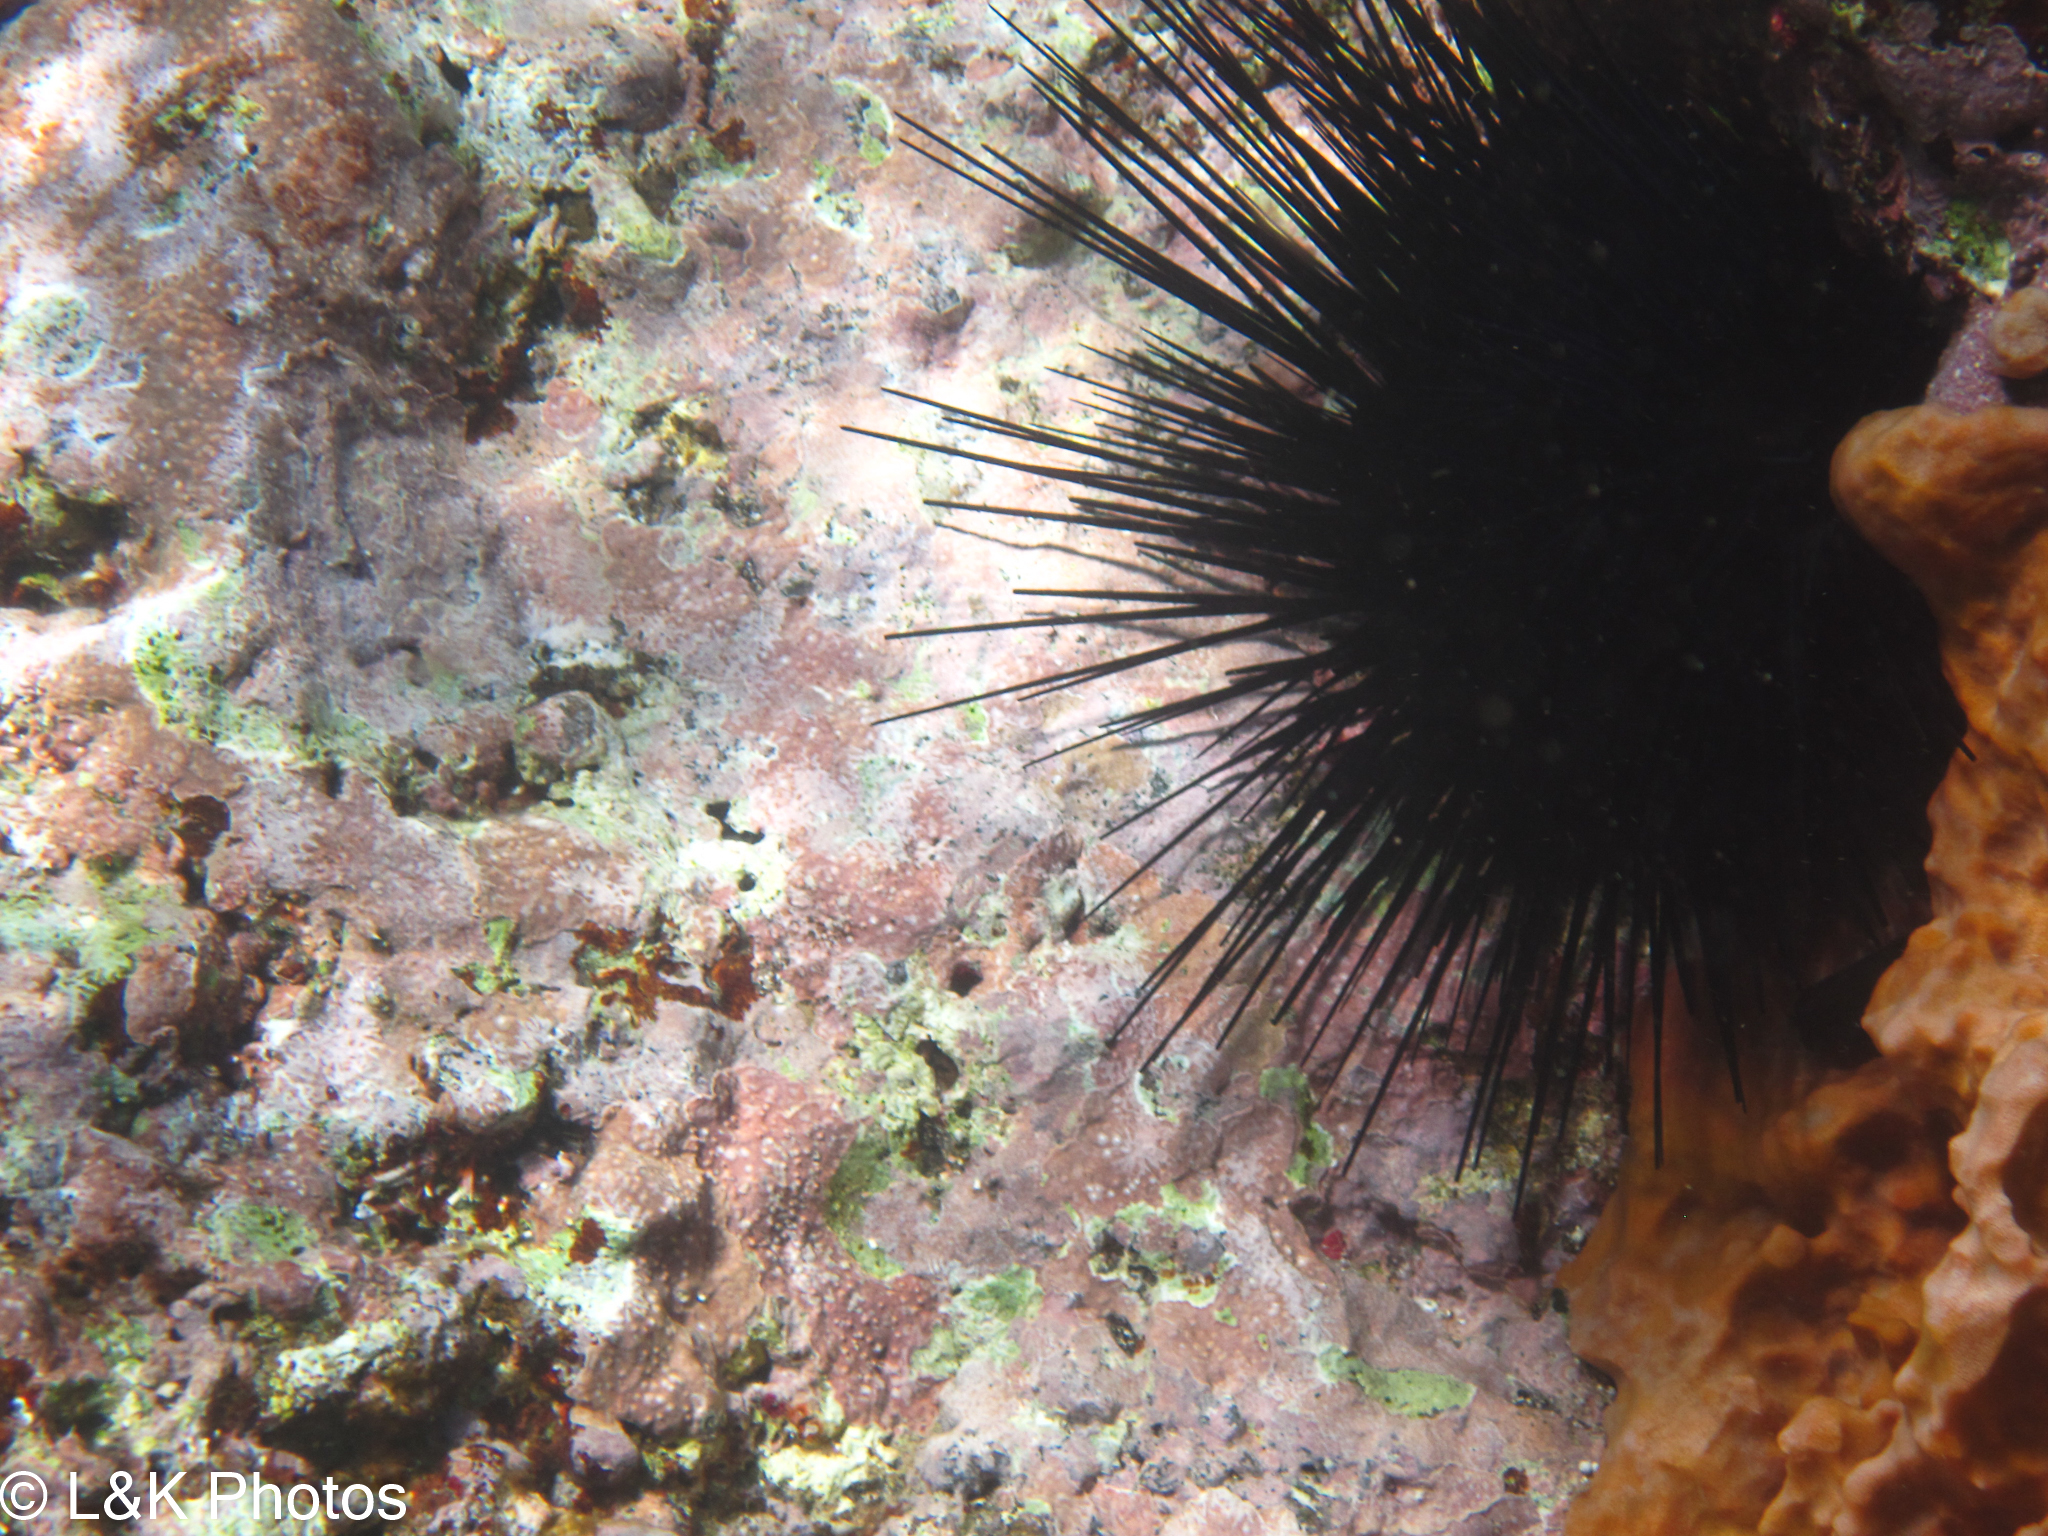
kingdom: Animalia
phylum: Echinodermata
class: Echinoidea
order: Diadematoida
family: Diadematidae
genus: Diadema
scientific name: Diadema antillarum
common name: Spiny urchin
